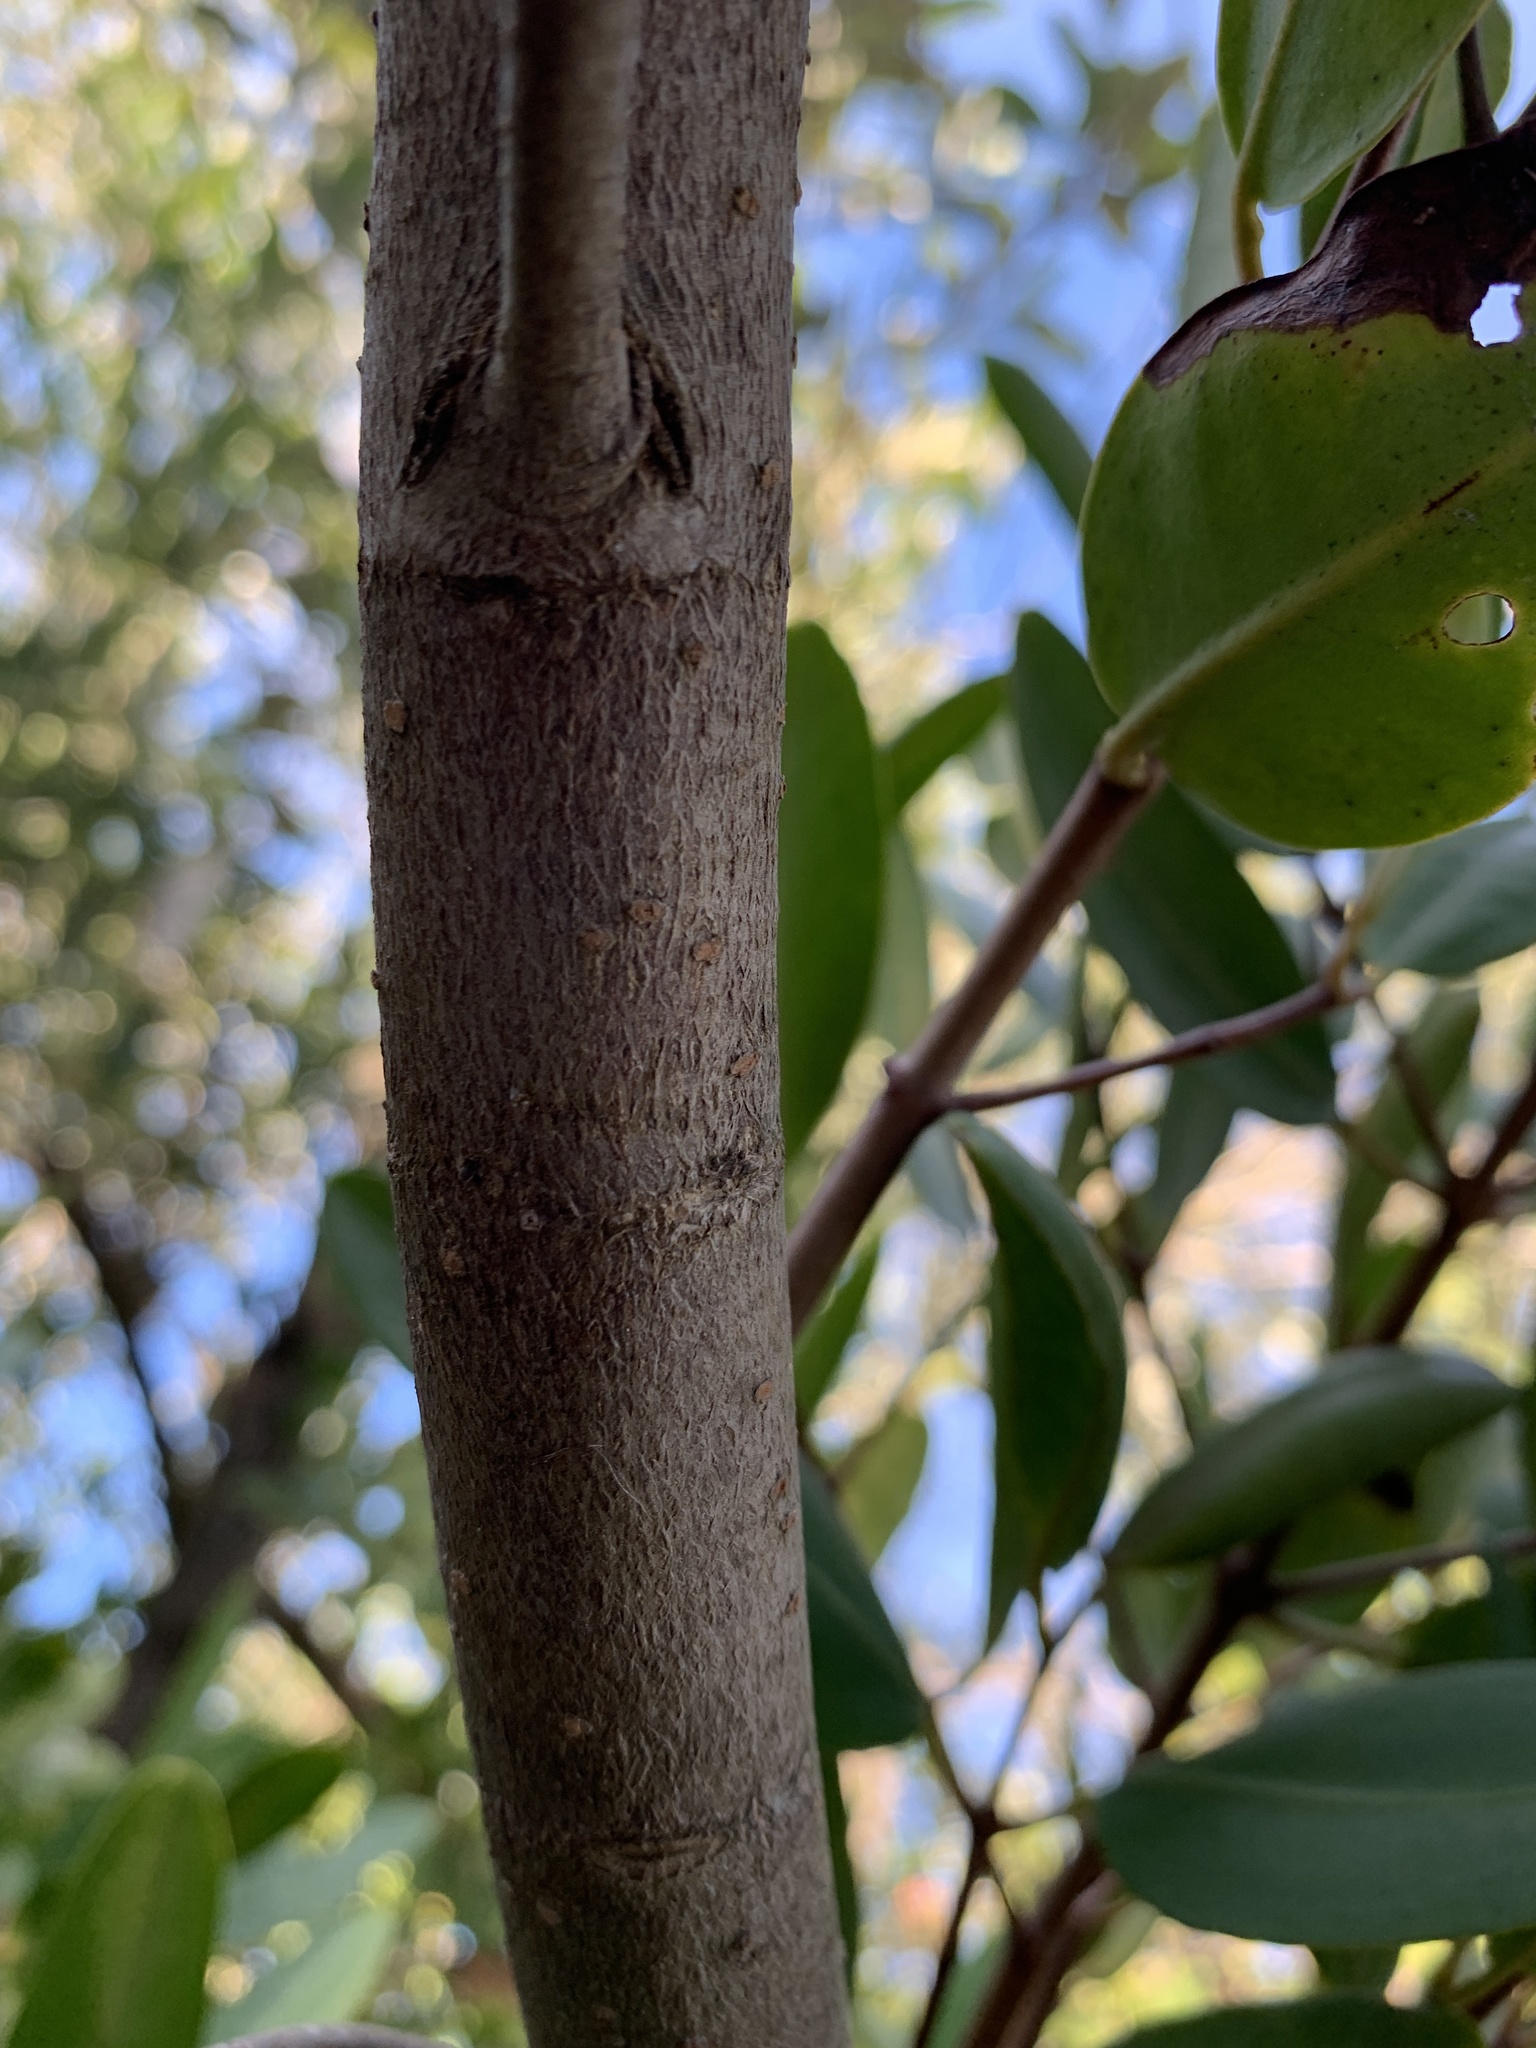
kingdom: Plantae
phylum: Tracheophyta
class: Magnoliopsida
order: Myrtales
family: Combretaceae
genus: Laguncularia
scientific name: Laguncularia racemosa
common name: White mangrove
